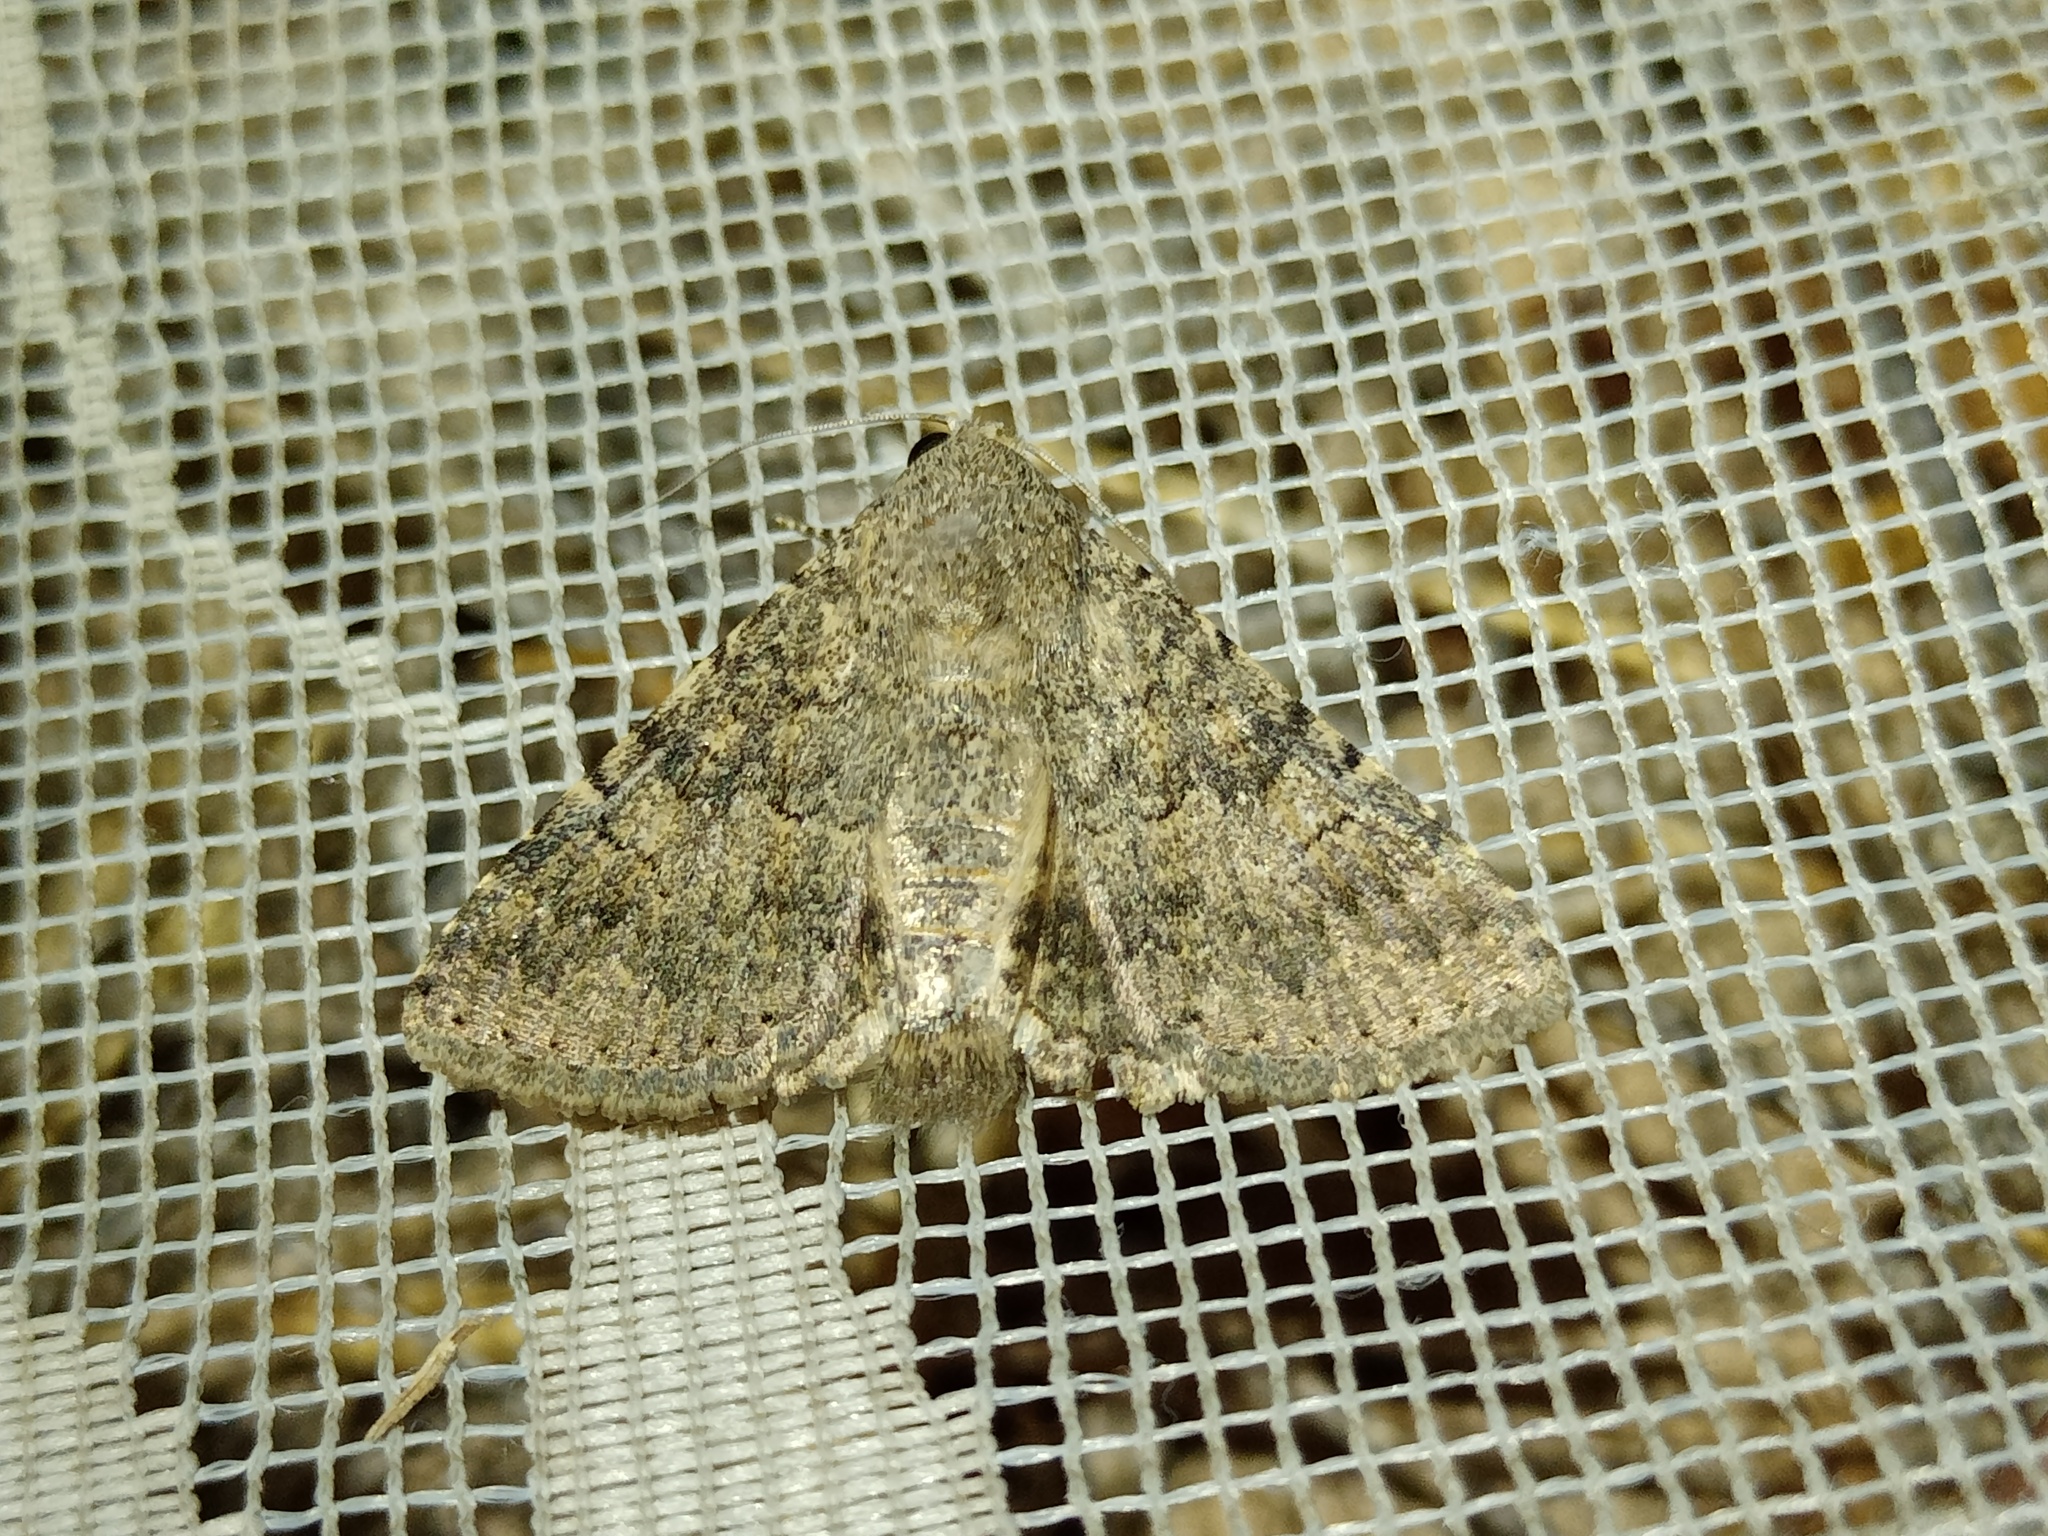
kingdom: Animalia
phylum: Arthropoda
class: Insecta
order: Lepidoptera
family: Erebidae
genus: Pandesma
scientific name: Pandesma robusta
